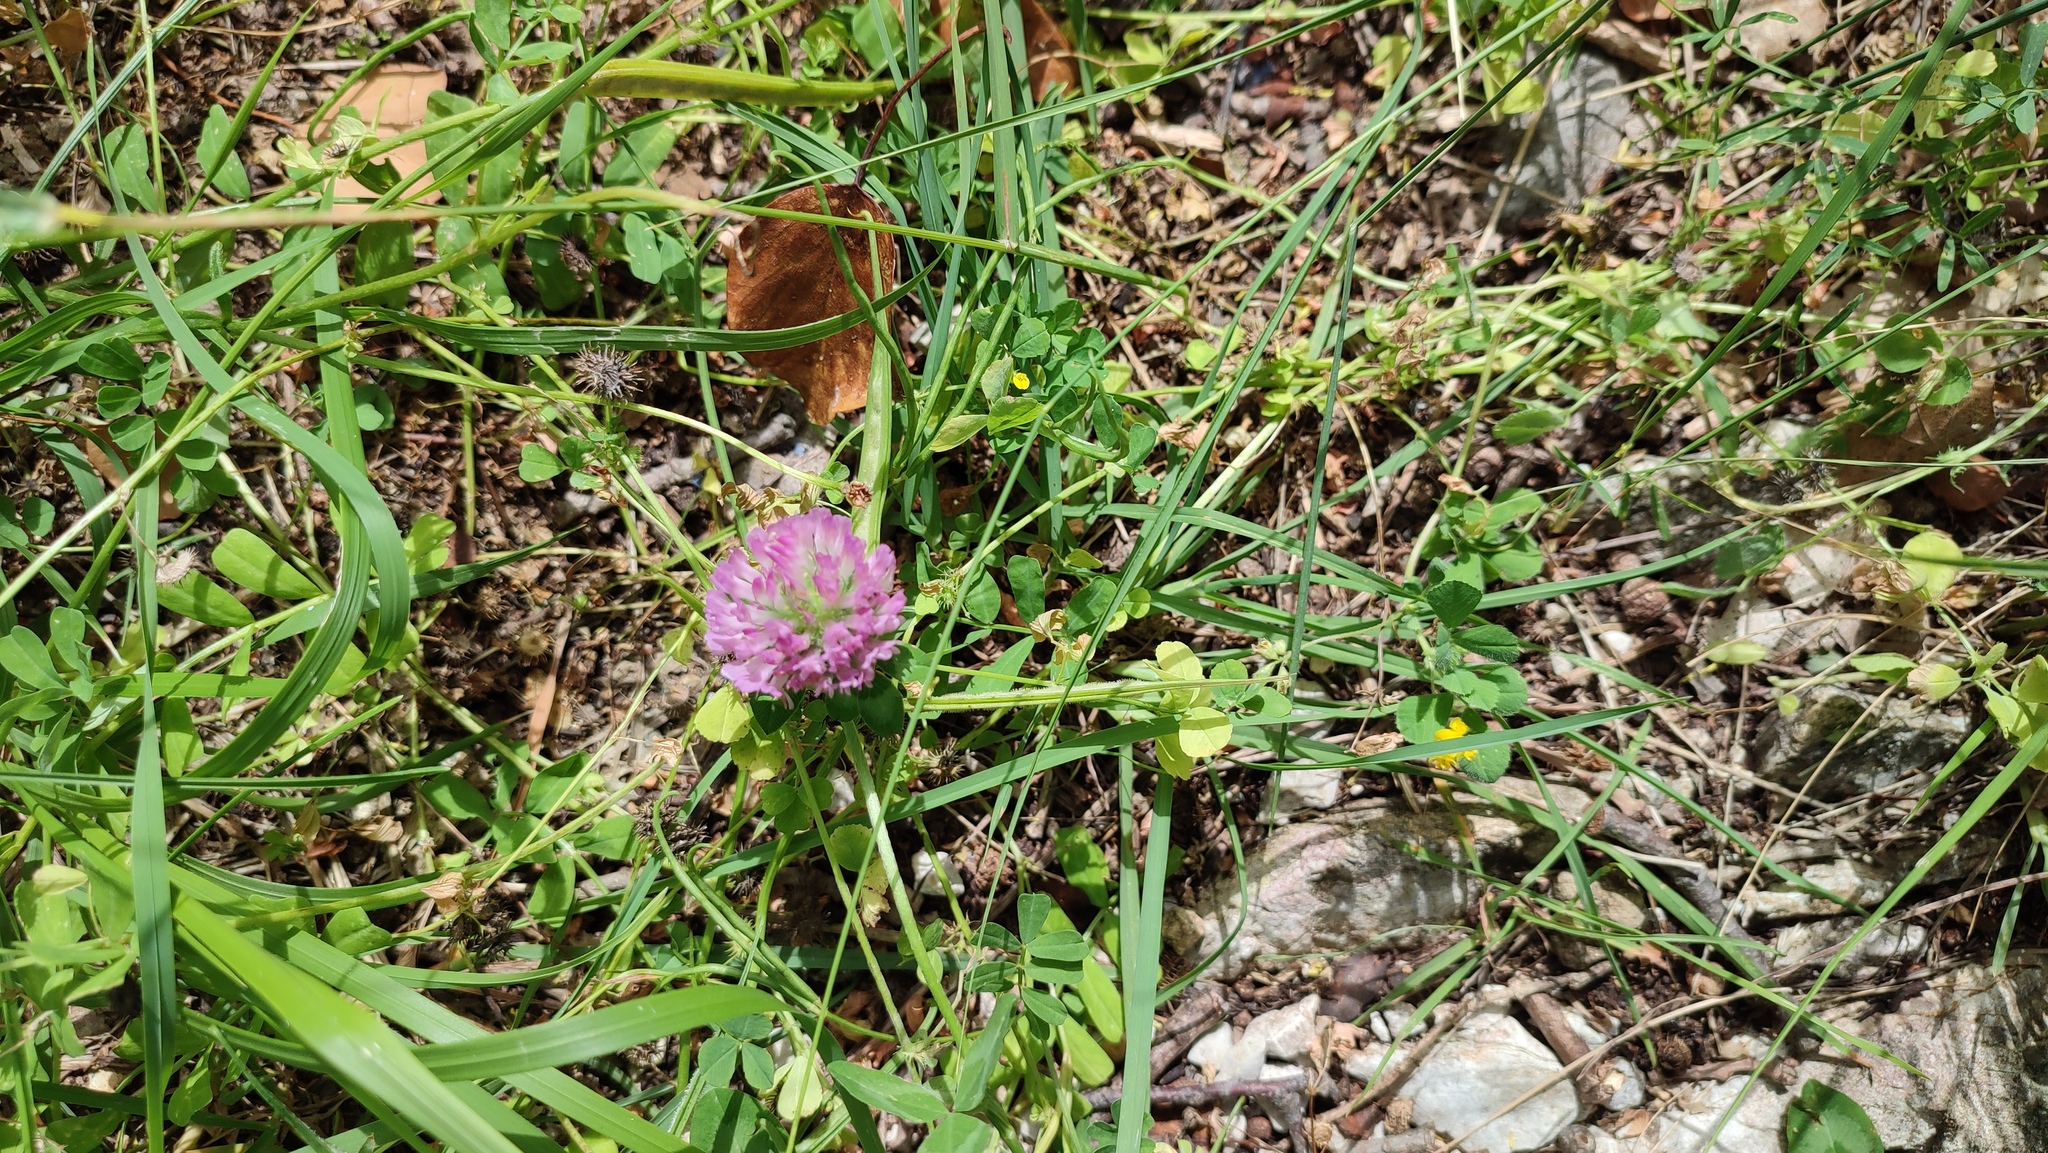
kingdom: Plantae
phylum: Tracheophyta
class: Magnoliopsida
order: Fabales
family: Fabaceae
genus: Trifolium
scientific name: Trifolium pratense
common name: Red clover
